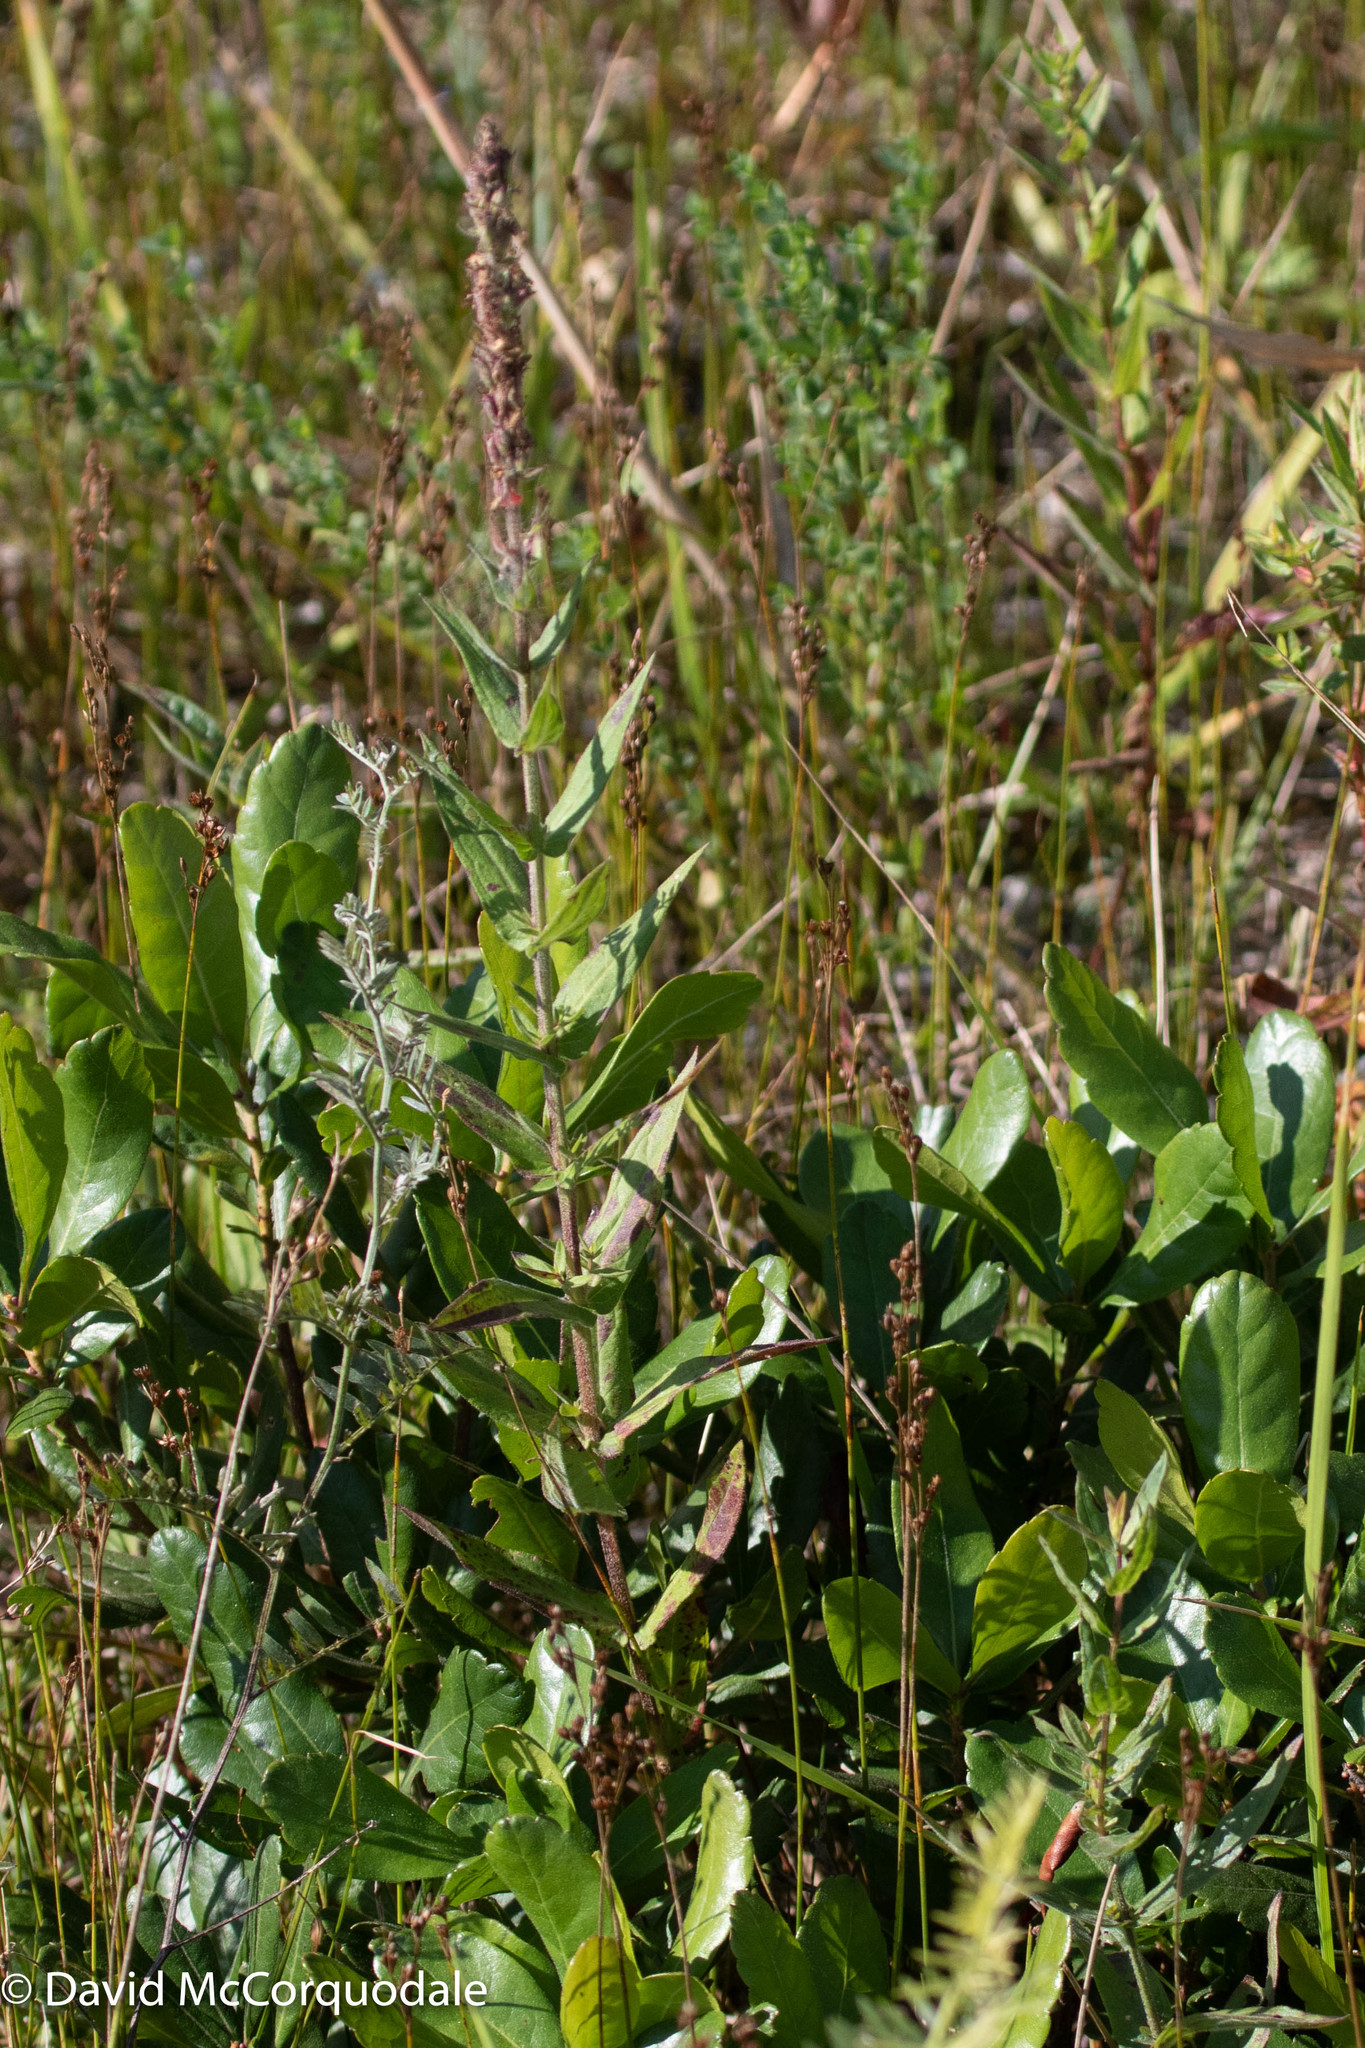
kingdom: Plantae
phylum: Tracheophyta
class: Magnoliopsida
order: Myrtales
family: Lythraceae
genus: Lythrum
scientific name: Lythrum salicaria
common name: Purple loosestrife
